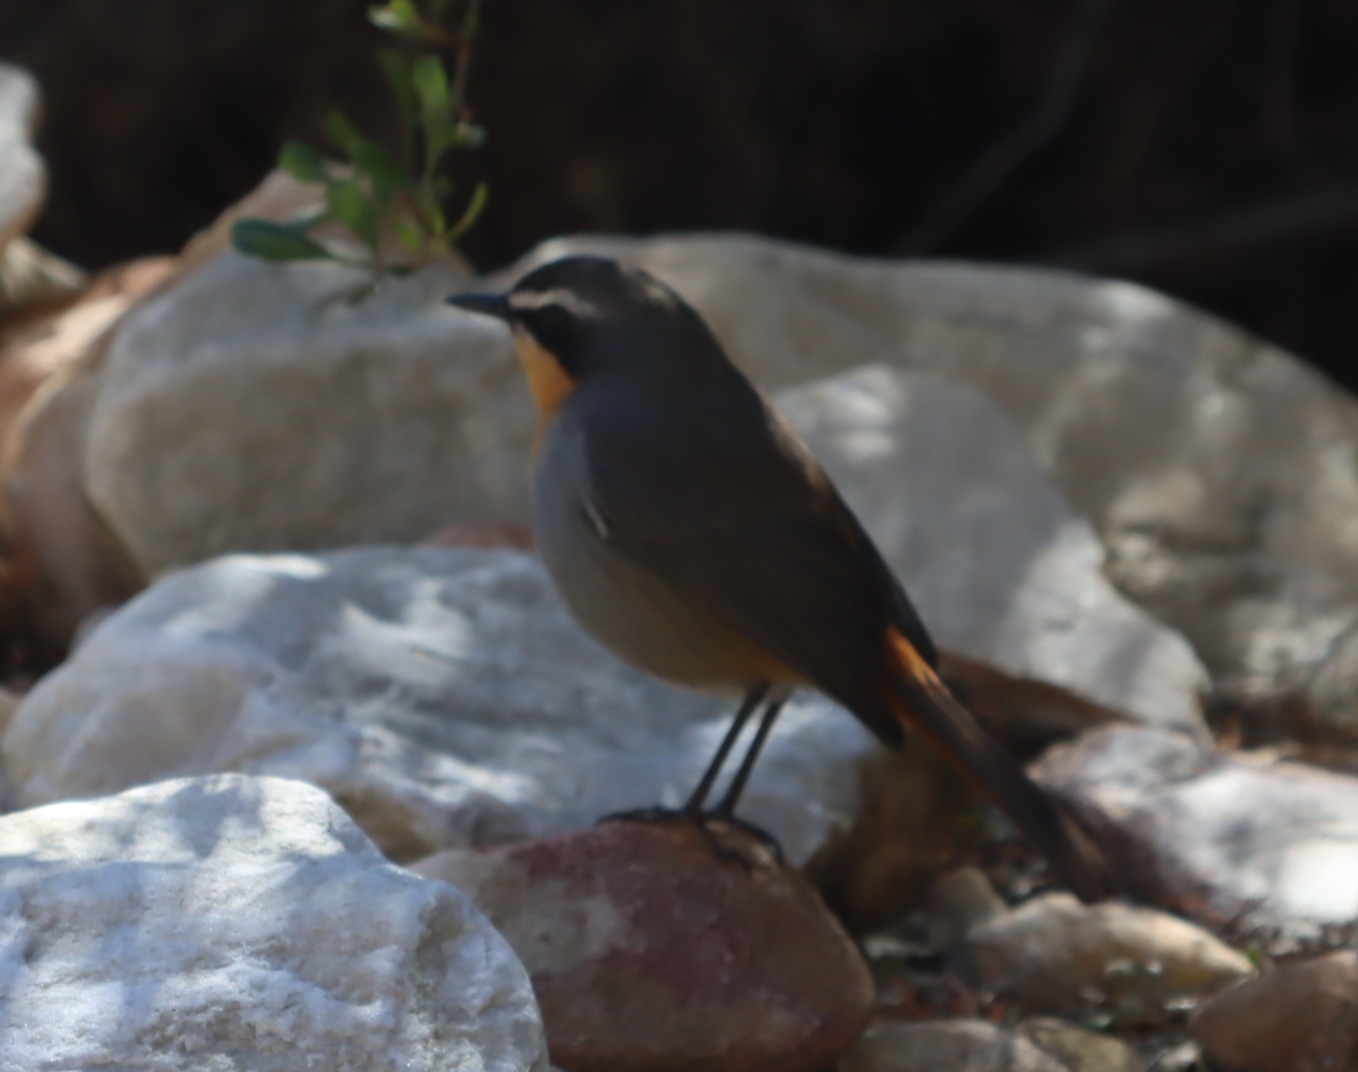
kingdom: Animalia
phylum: Chordata
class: Aves
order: Passeriformes
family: Muscicapidae
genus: Cossypha
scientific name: Cossypha caffra
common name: Cape robin-chat
